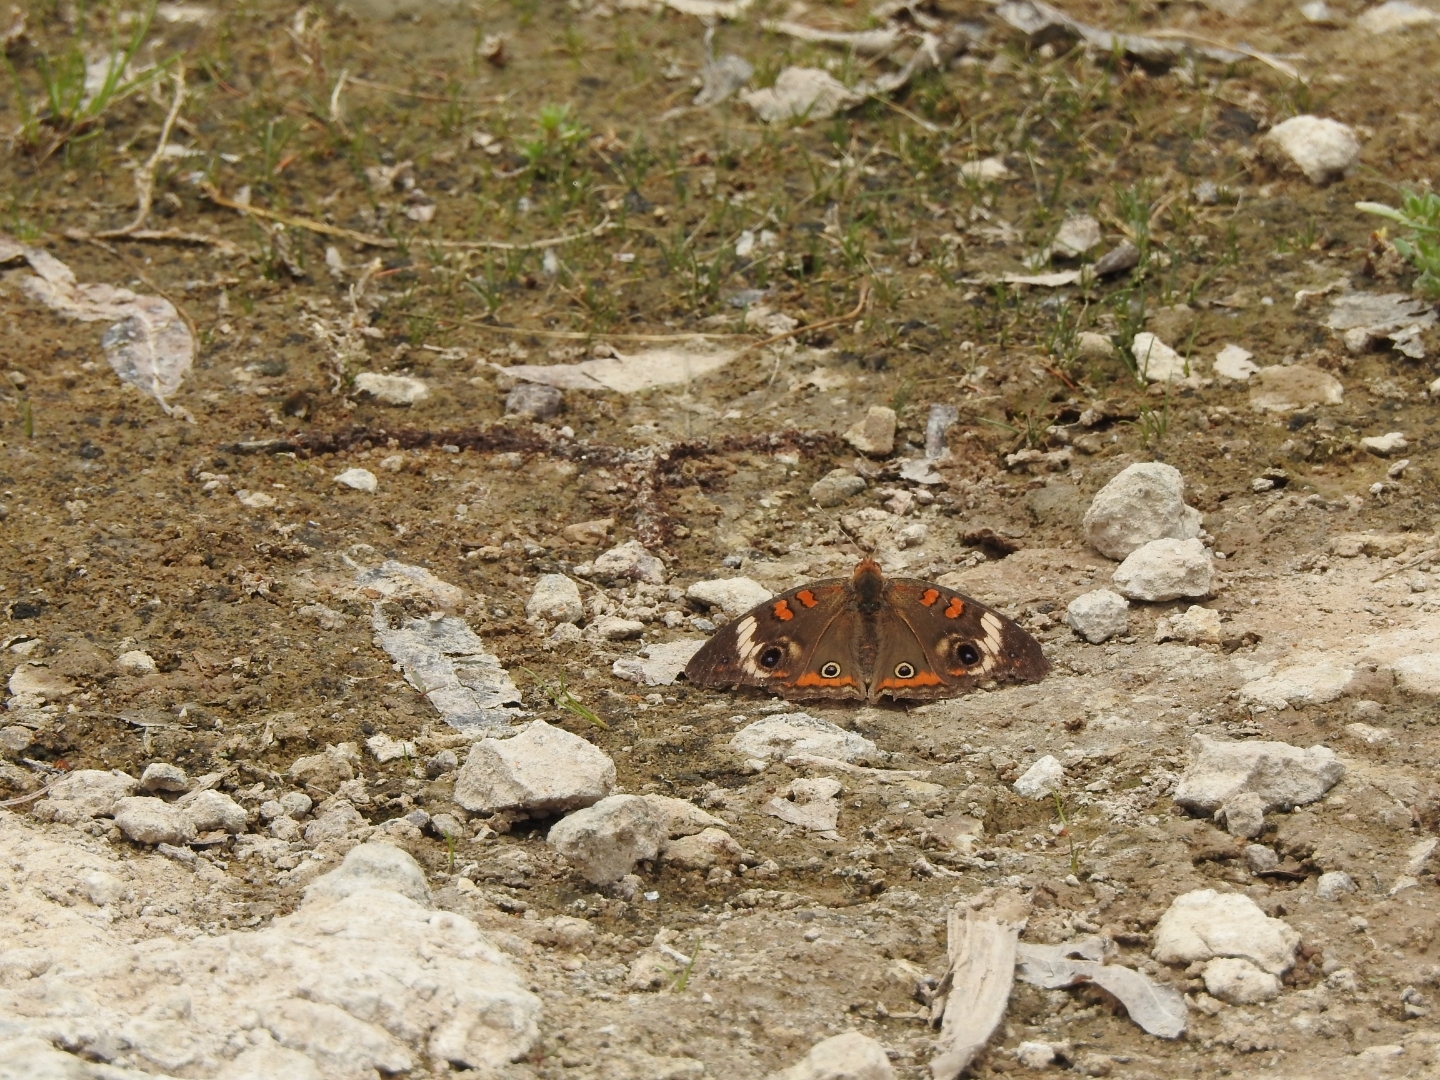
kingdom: Animalia
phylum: Arthropoda
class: Insecta
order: Lepidoptera
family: Nymphalidae
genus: Junonia
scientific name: Junonia coenia
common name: Common buckeye
